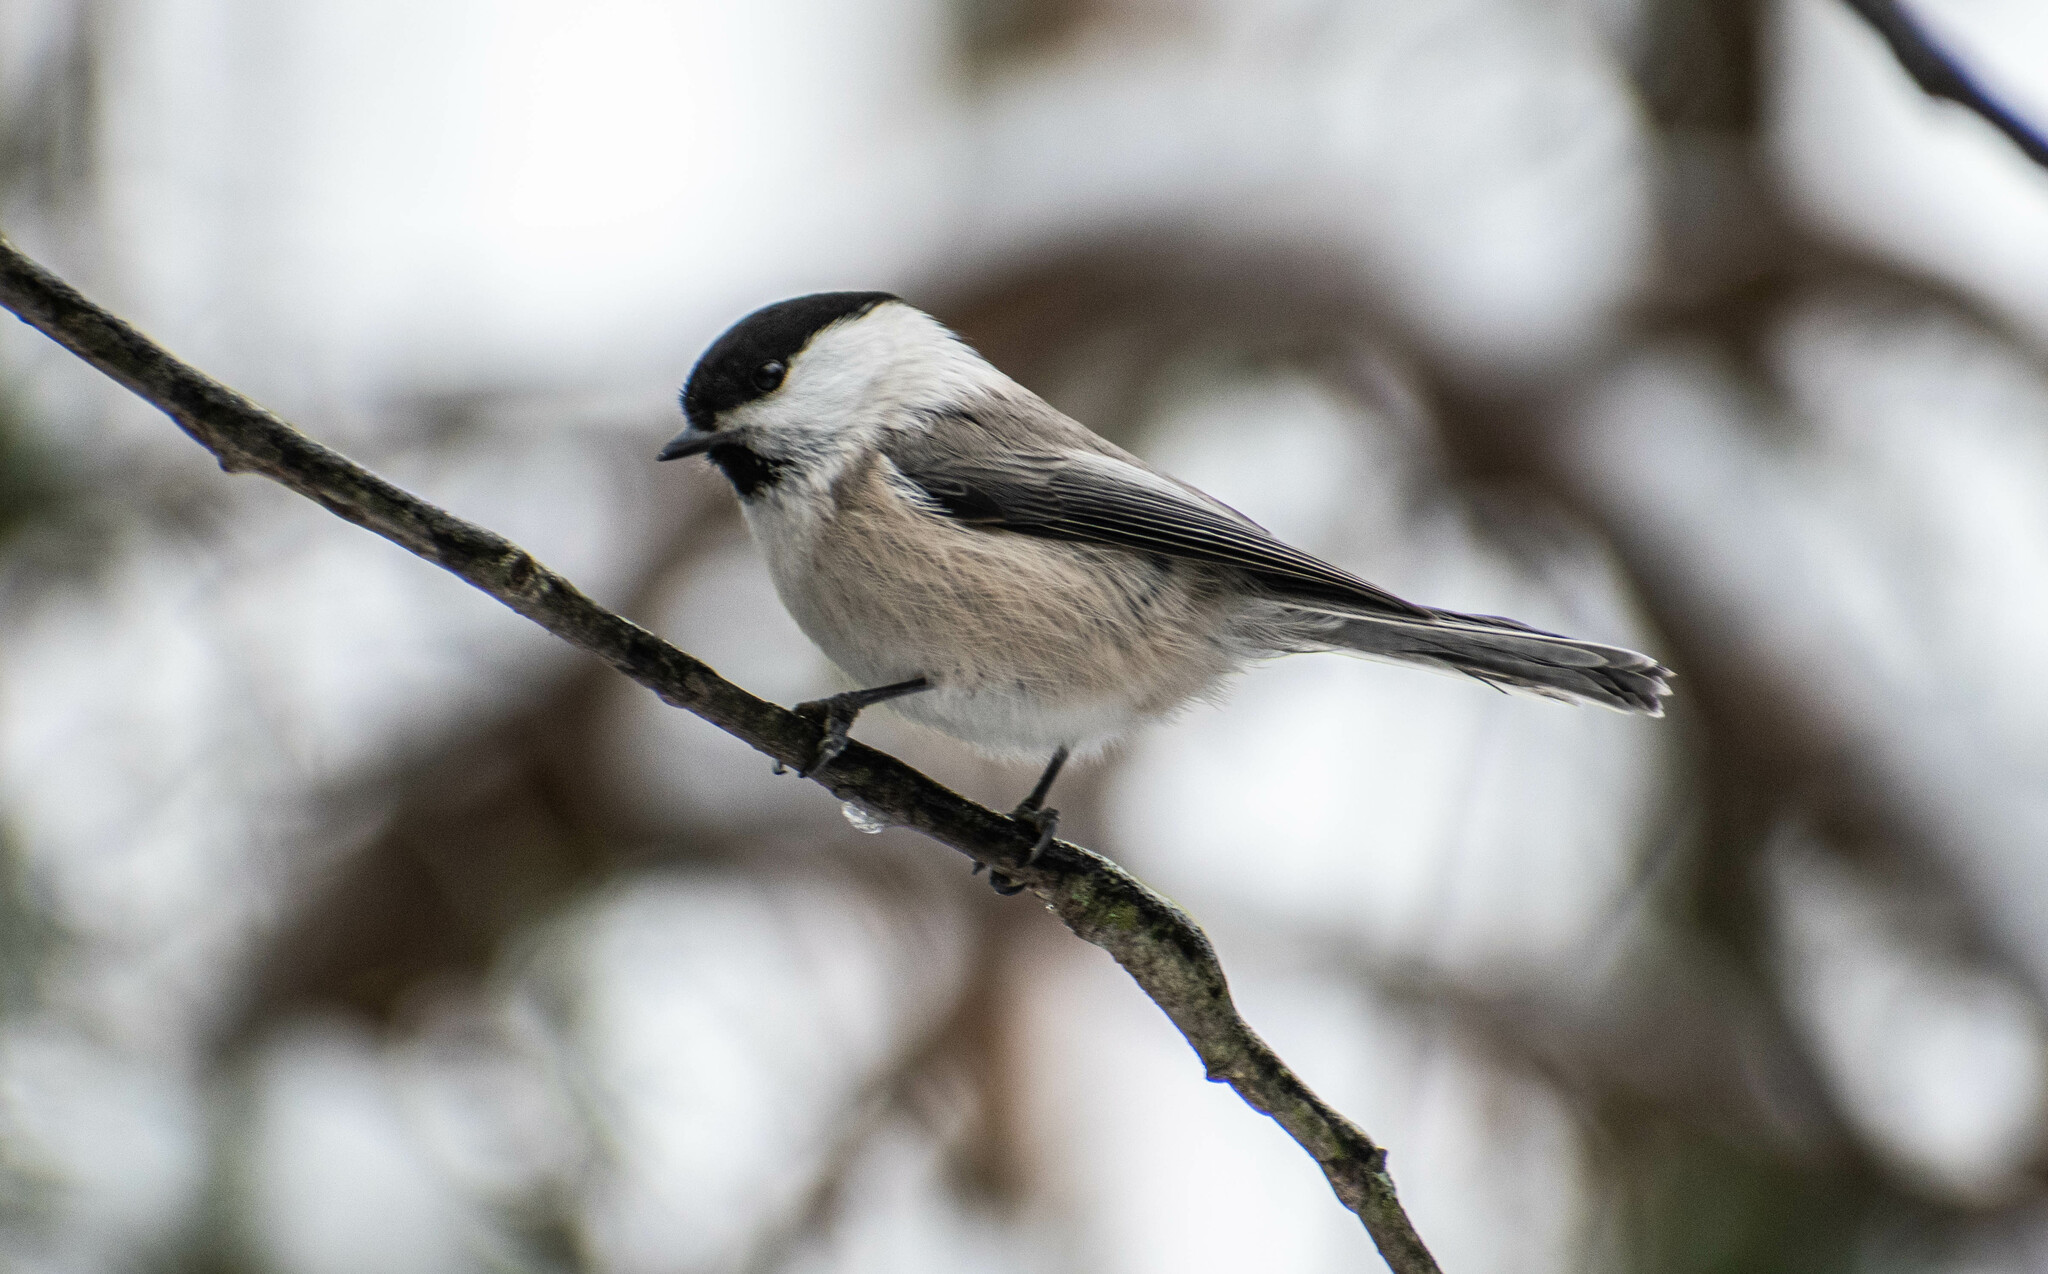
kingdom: Animalia
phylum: Chordata
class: Aves
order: Passeriformes
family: Paridae
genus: Poecile
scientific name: Poecile montanus
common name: Willow tit
